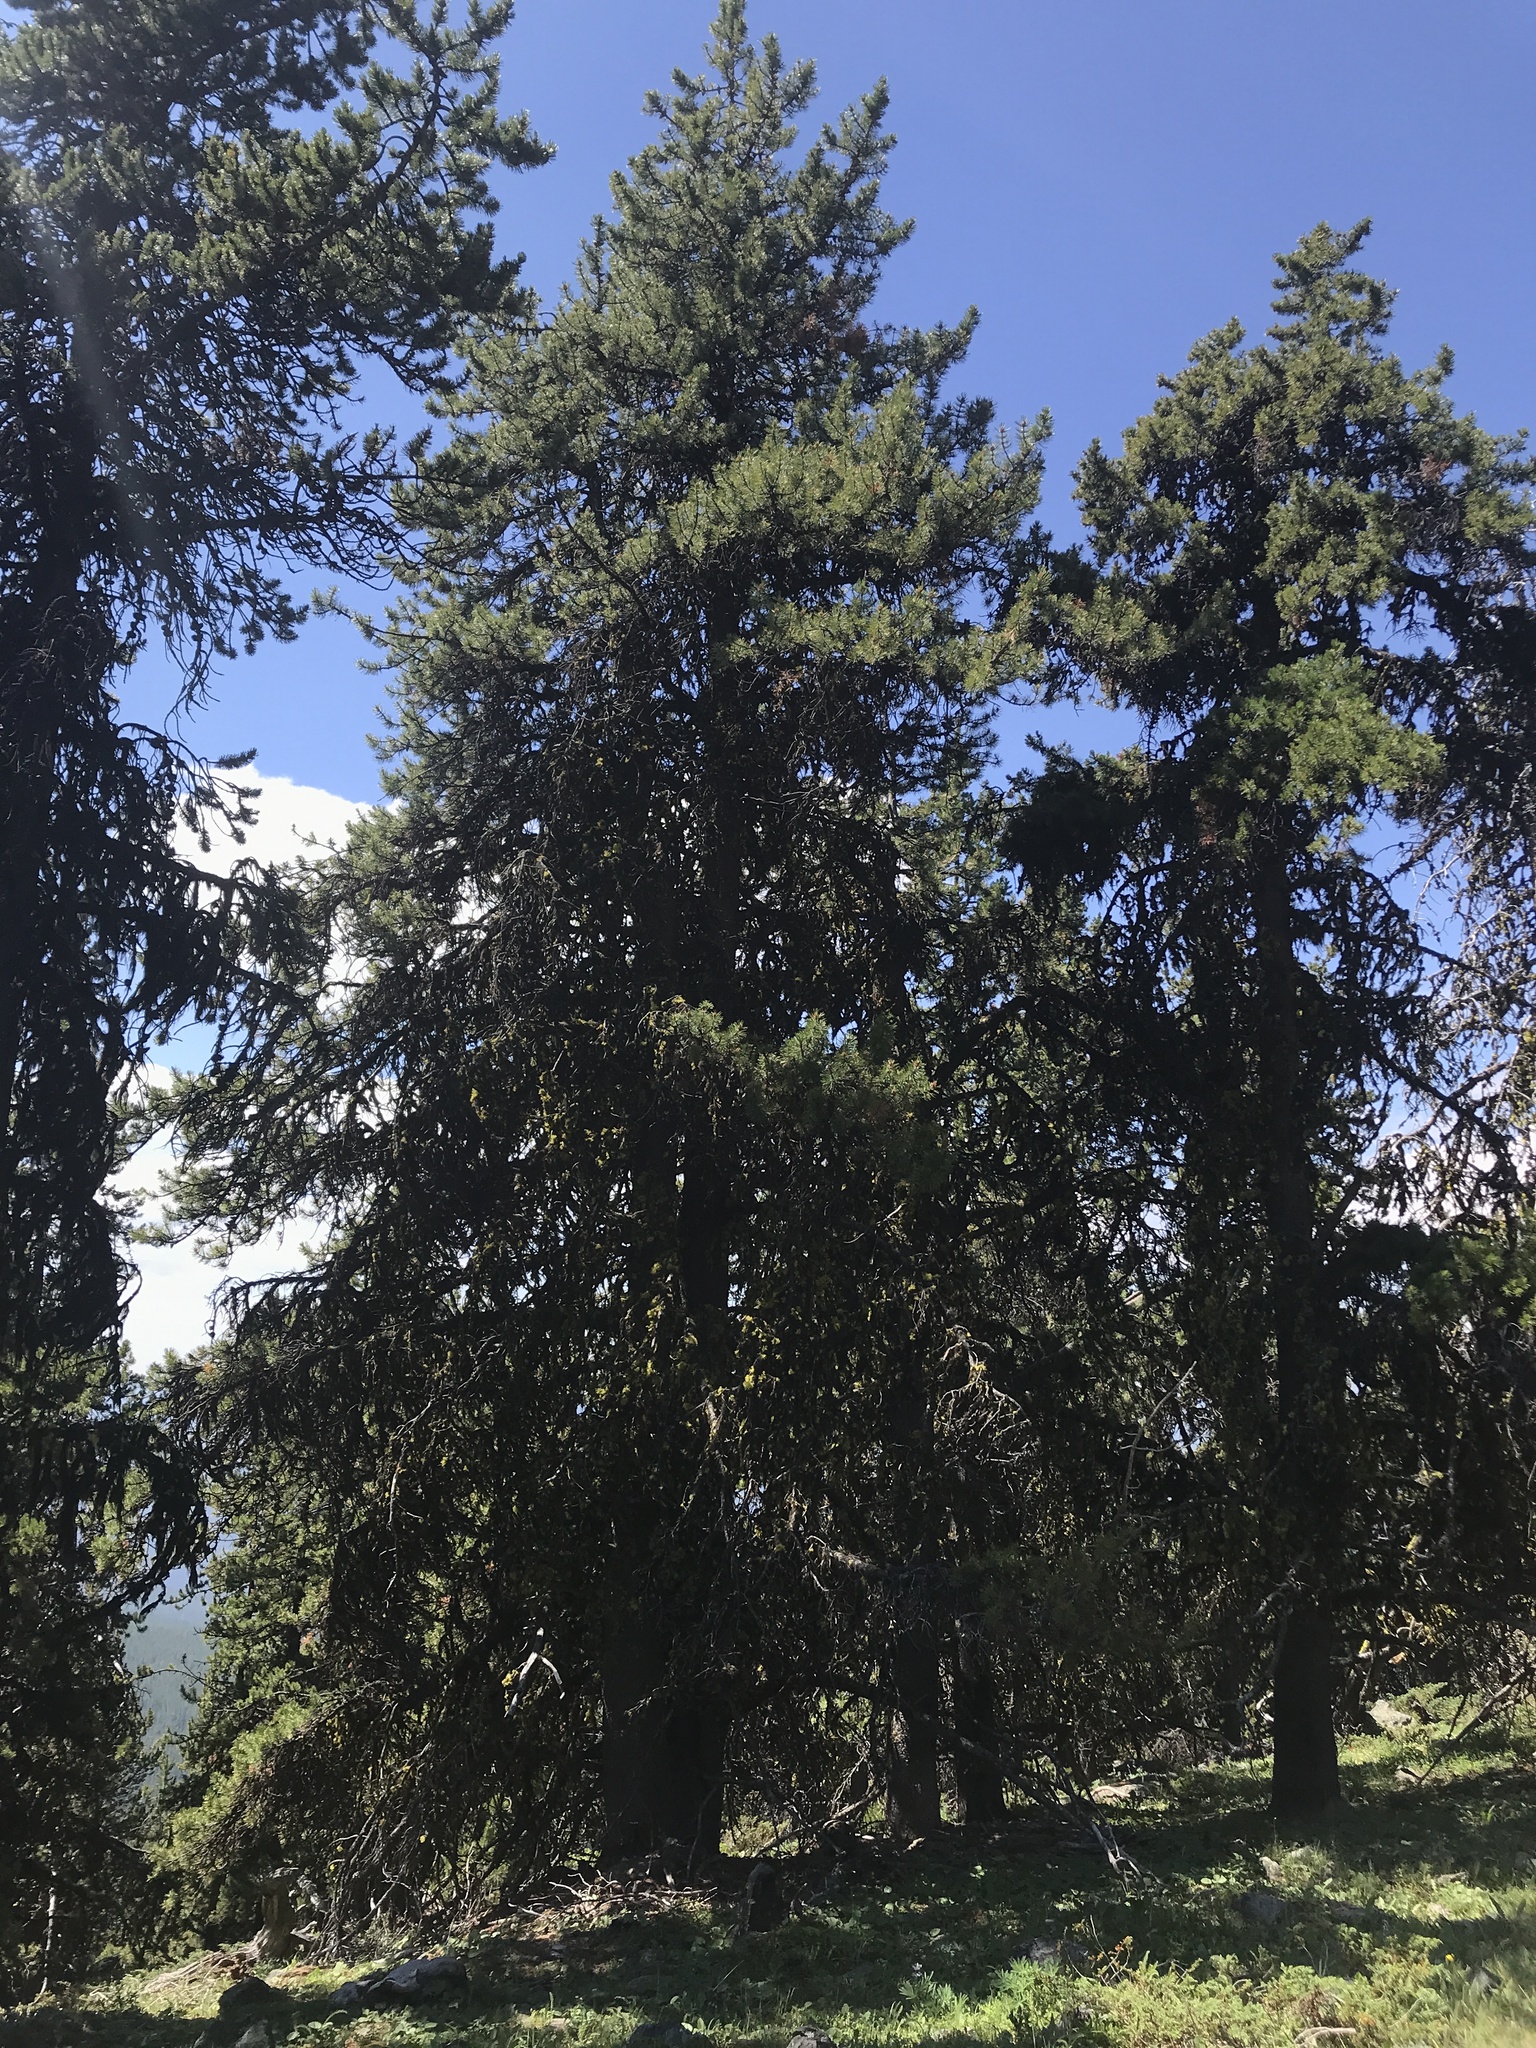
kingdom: Plantae
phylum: Tracheophyta
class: Pinopsida
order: Pinales
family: Pinaceae
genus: Pinus
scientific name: Pinus contorta
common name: Lodgepole pine
